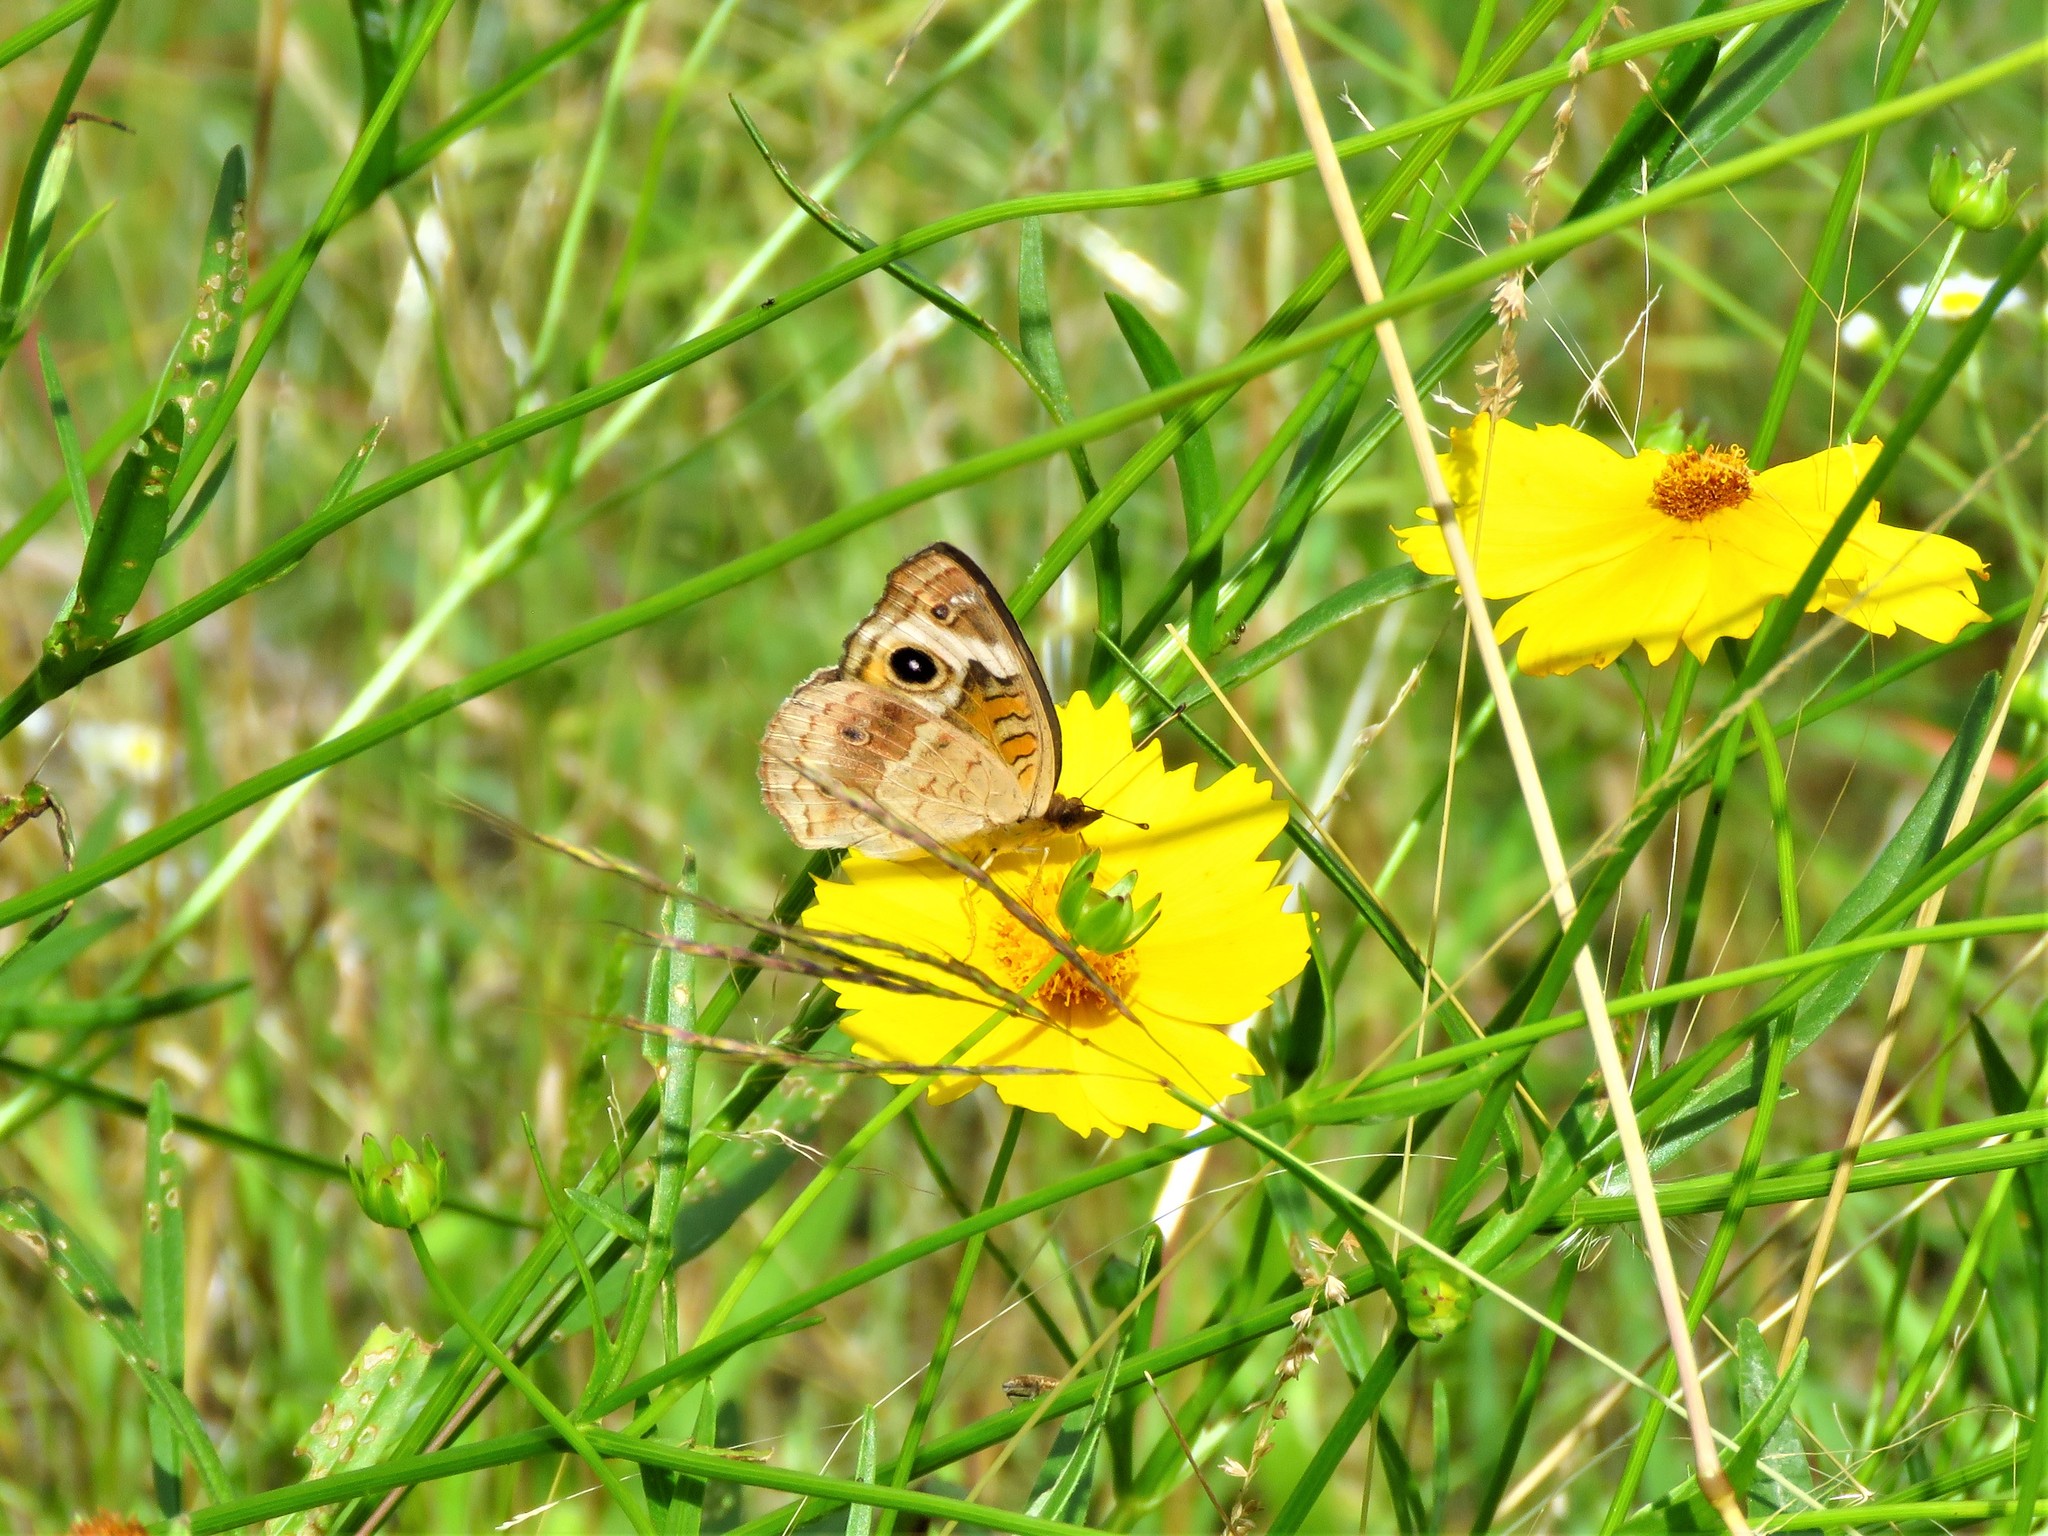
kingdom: Animalia
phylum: Arthropoda
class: Insecta
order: Lepidoptera
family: Nymphalidae
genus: Junonia
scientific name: Junonia coenia
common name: Common buckeye
